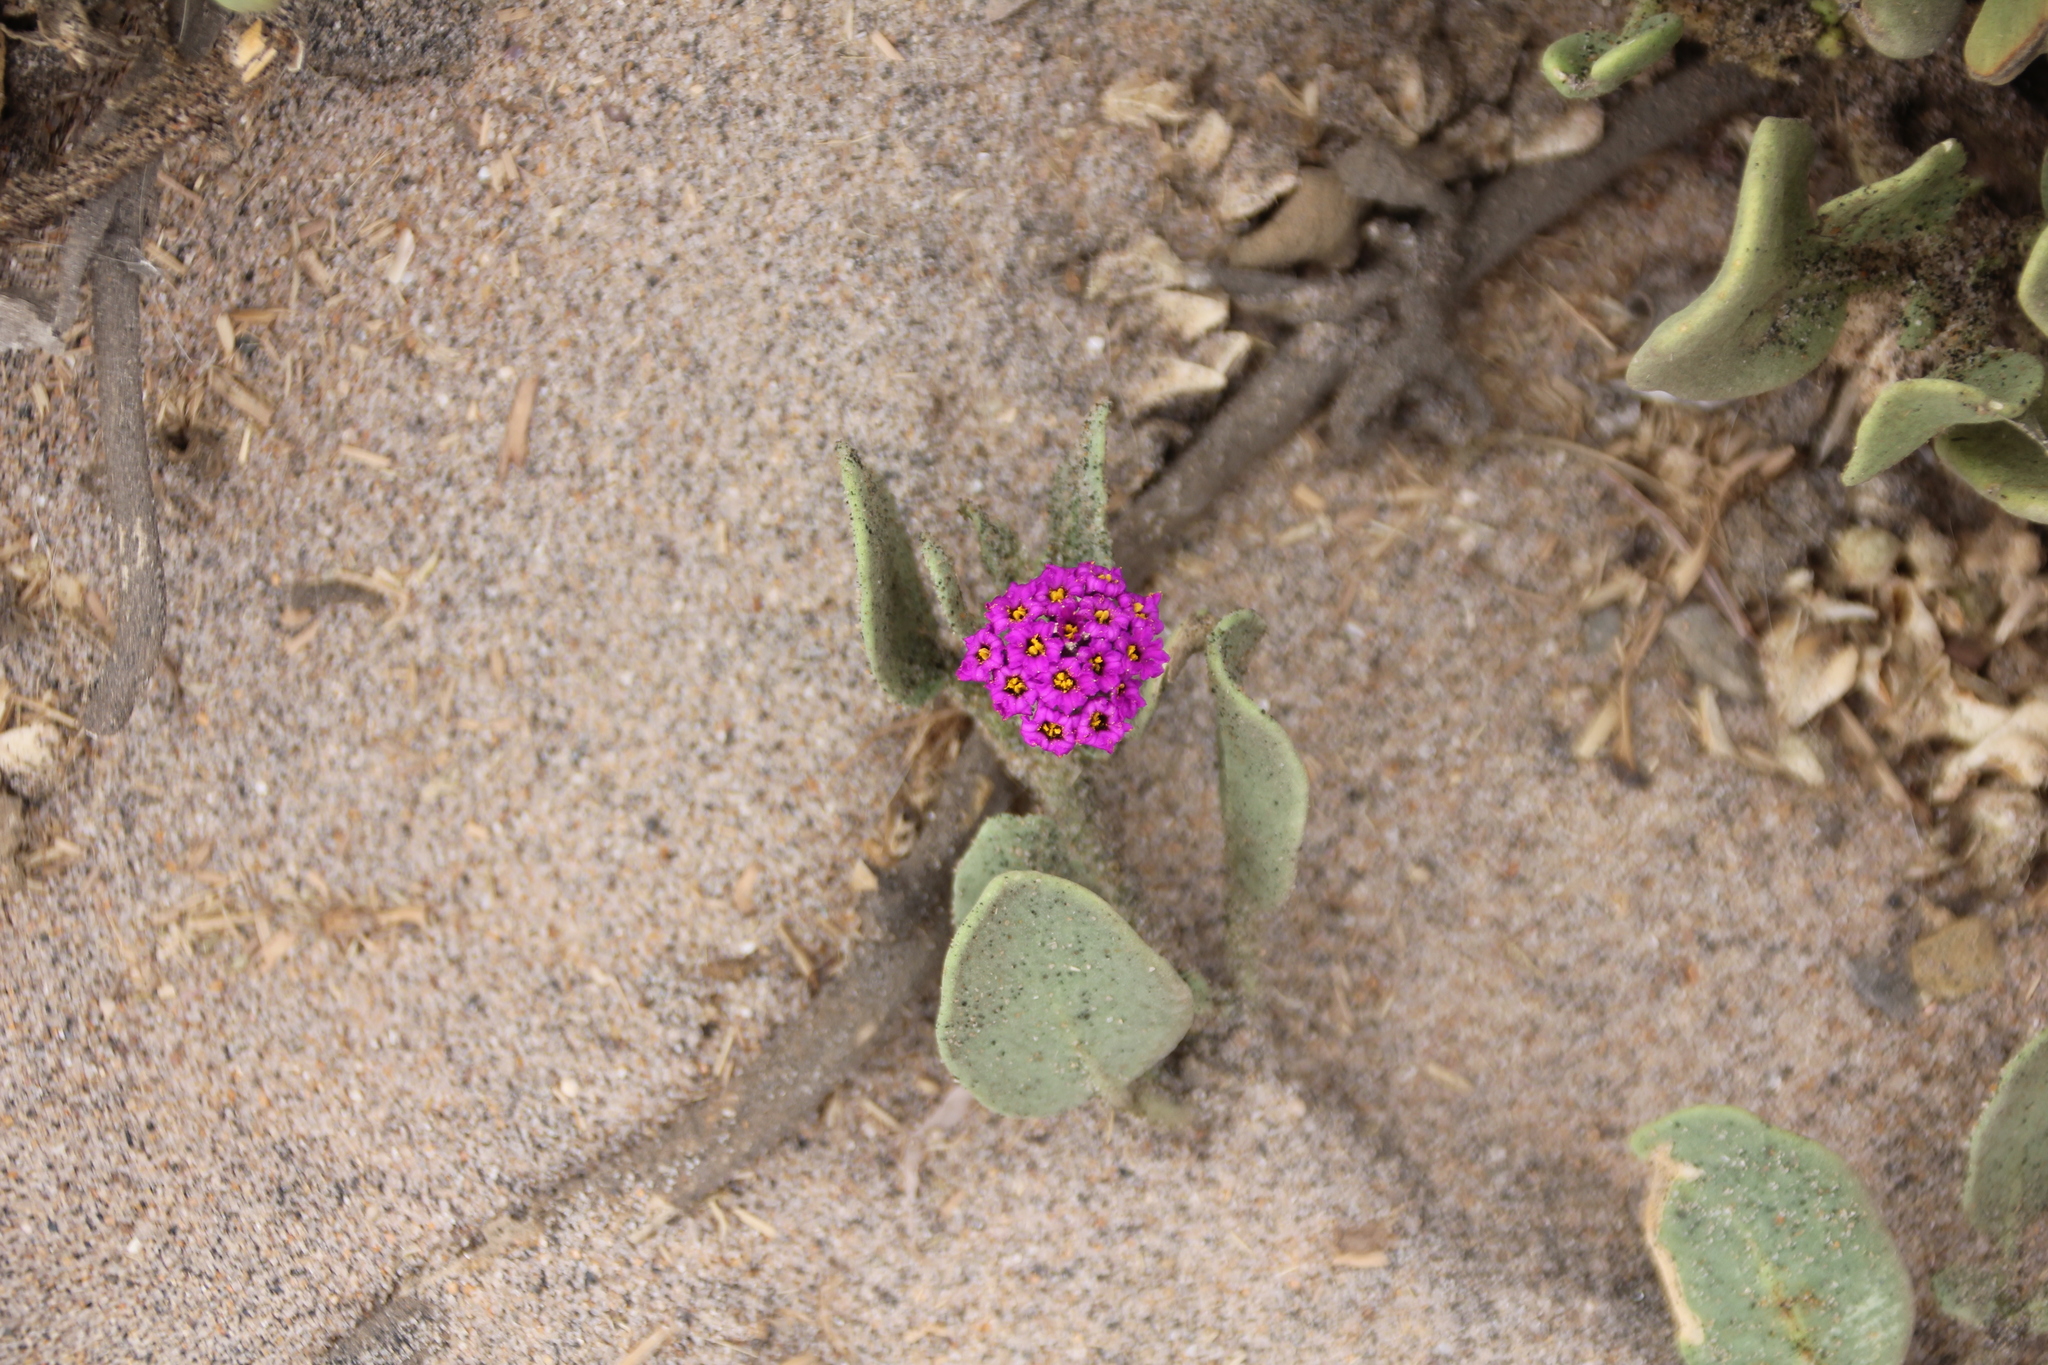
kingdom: Plantae
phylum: Tracheophyta
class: Magnoliopsida
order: Caryophyllales
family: Nyctaginaceae
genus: Abronia
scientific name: Abronia maritima
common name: Red sand-verbena
